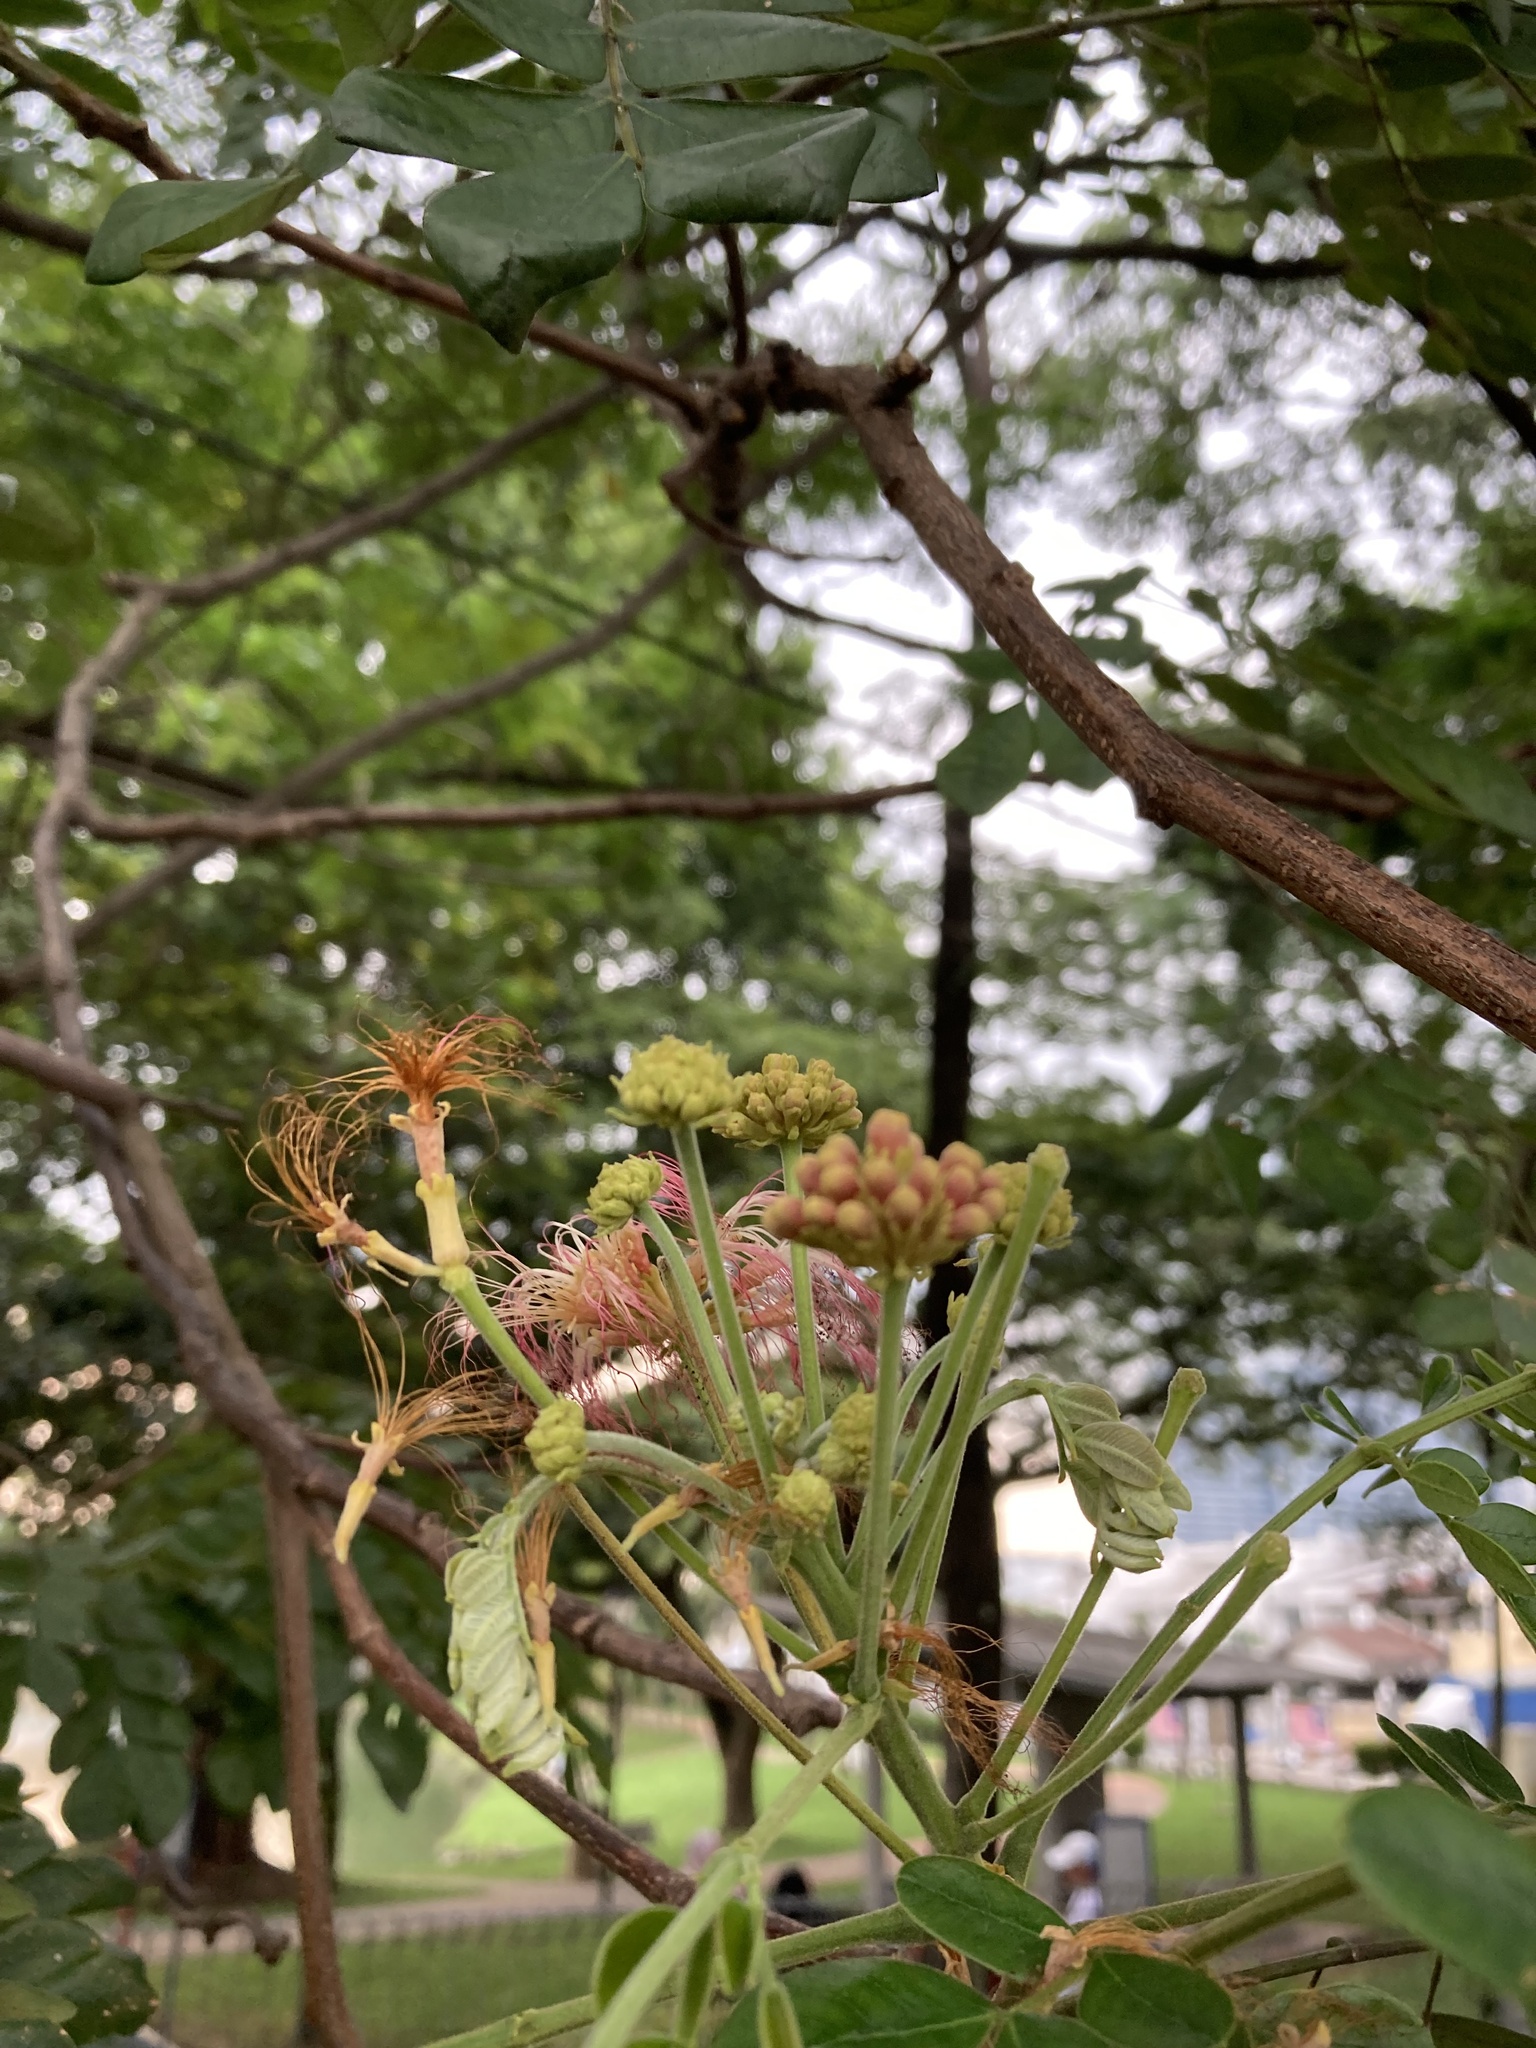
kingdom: Plantae
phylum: Tracheophyta
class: Magnoliopsida
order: Fabales
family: Fabaceae
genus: Samanea
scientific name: Samanea saman
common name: Raintree
